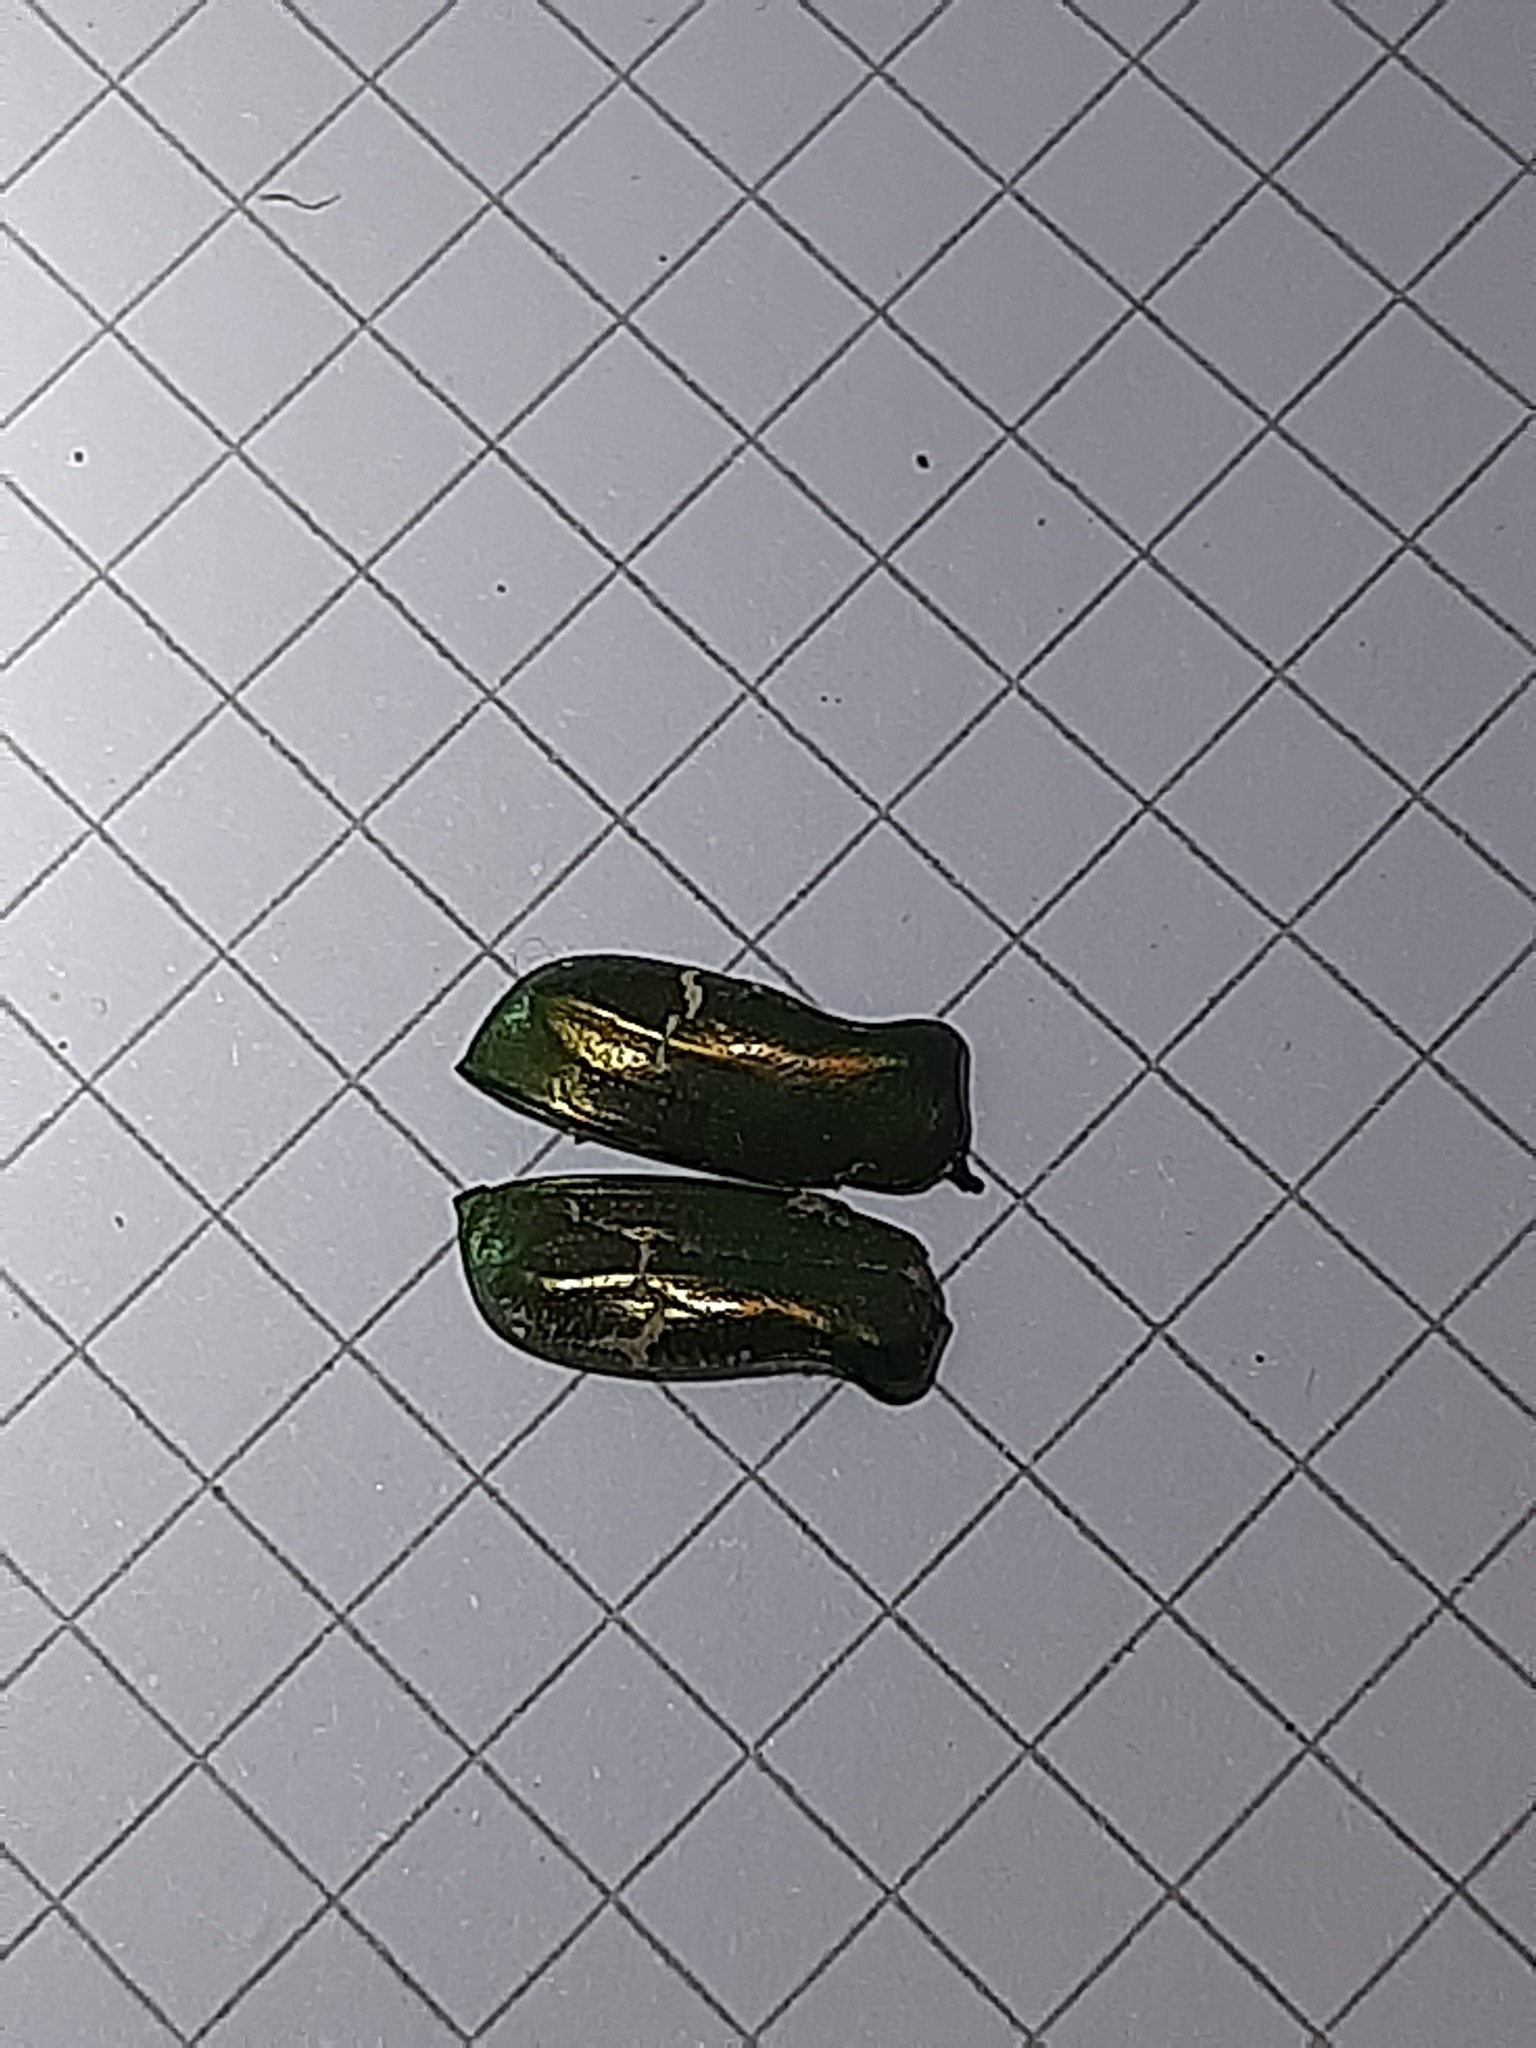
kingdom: Animalia
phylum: Arthropoda
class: Insecta
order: Coleoptera
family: Scarabaeidae
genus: Cetonia
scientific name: Cetonia aurata
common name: Rose chafer
